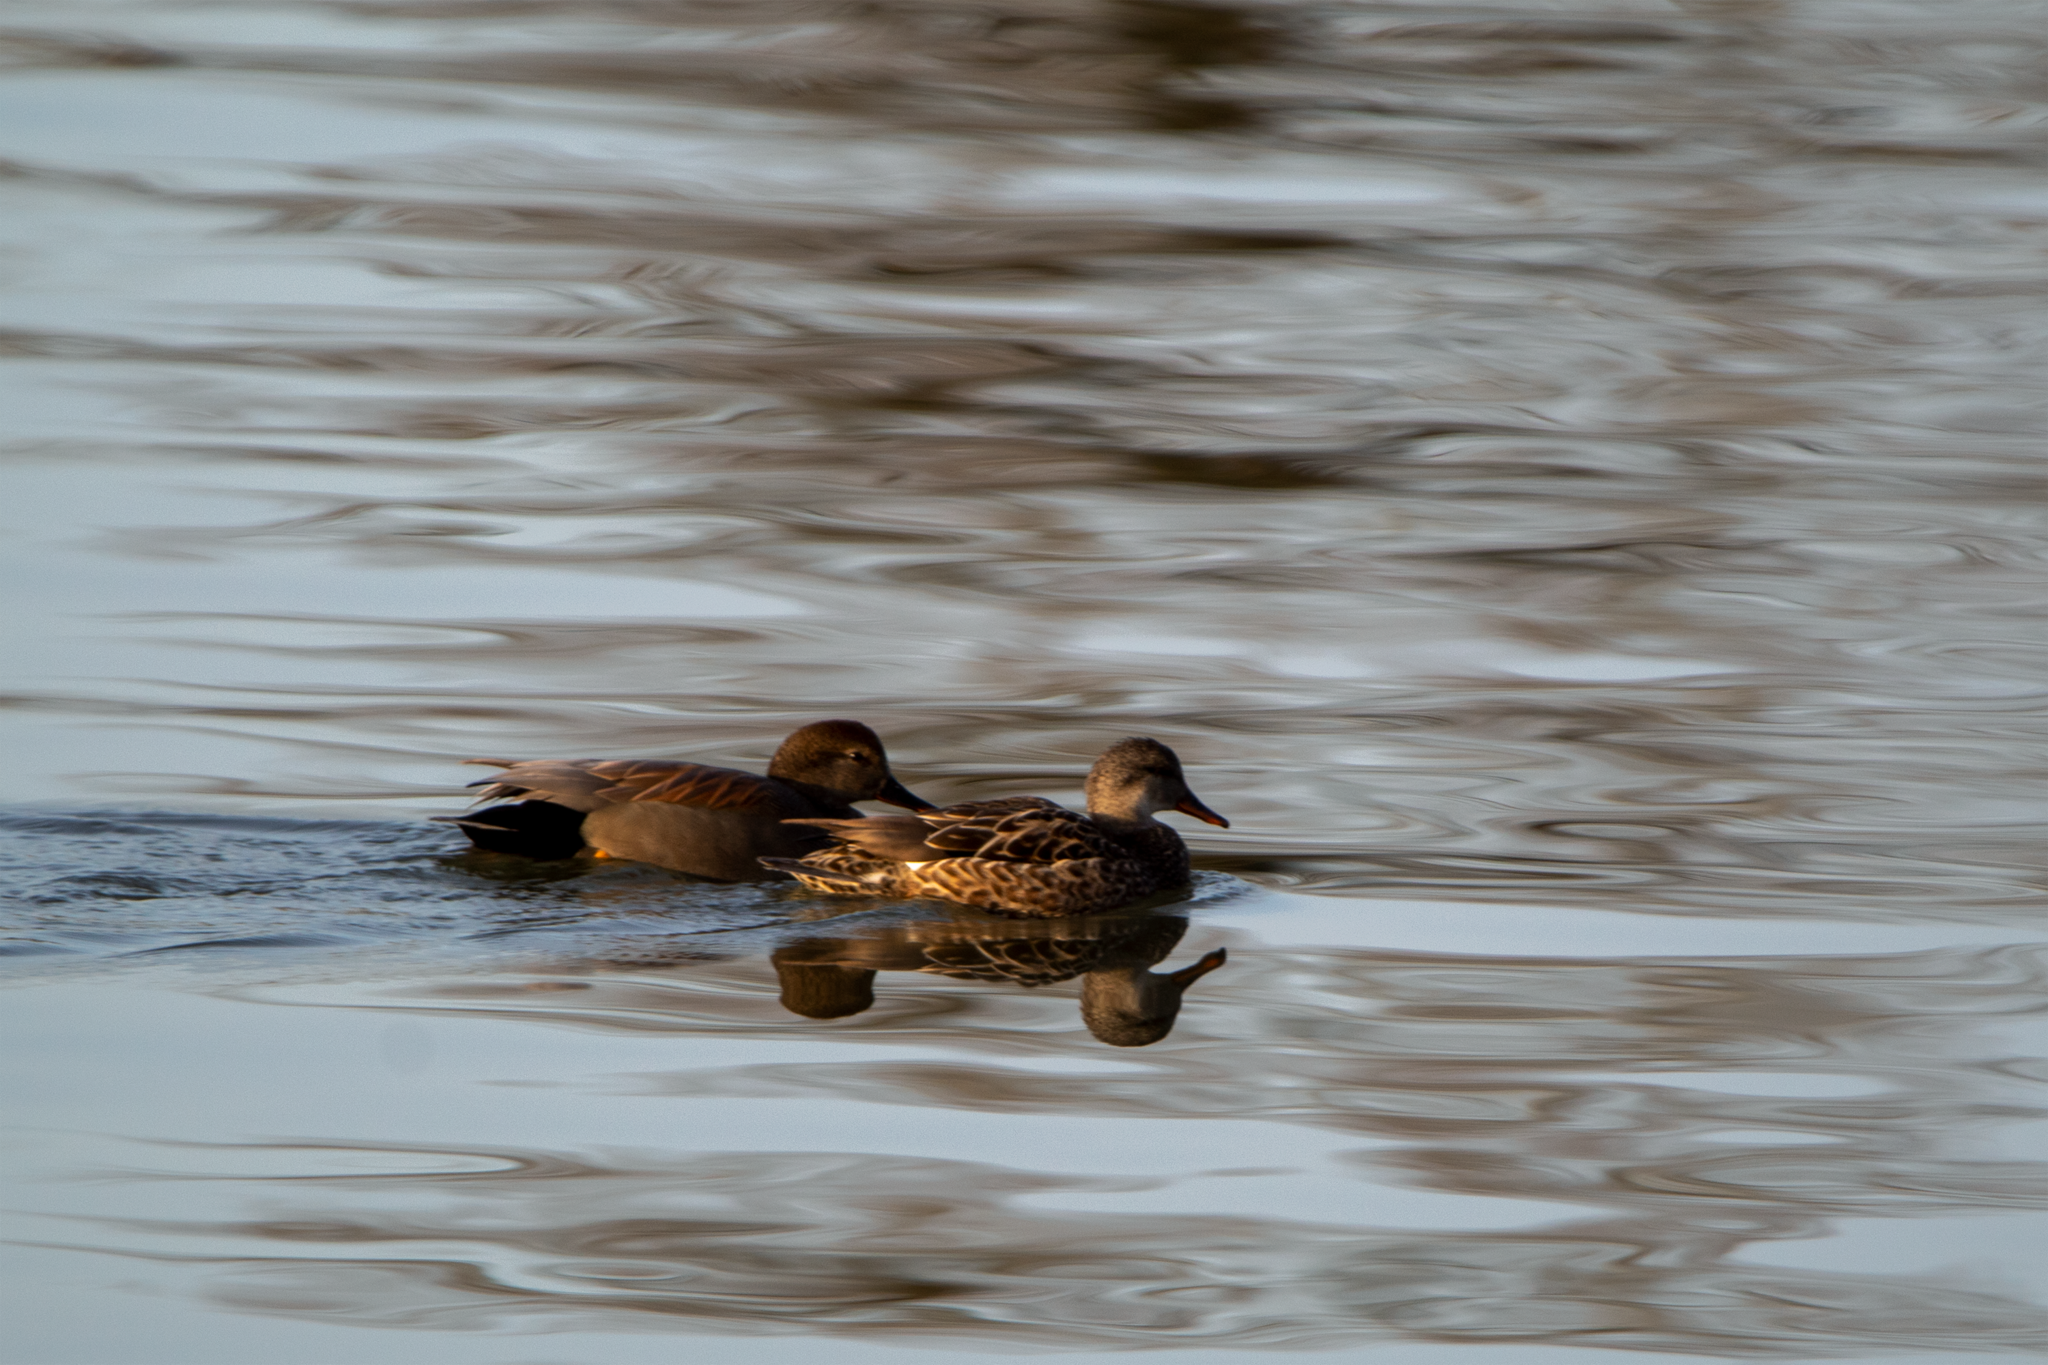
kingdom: Animalia
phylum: Chordata
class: Aves
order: Anseriformes
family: Anatidae
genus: Mareca
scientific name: Mareca strepera
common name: Gadwall
